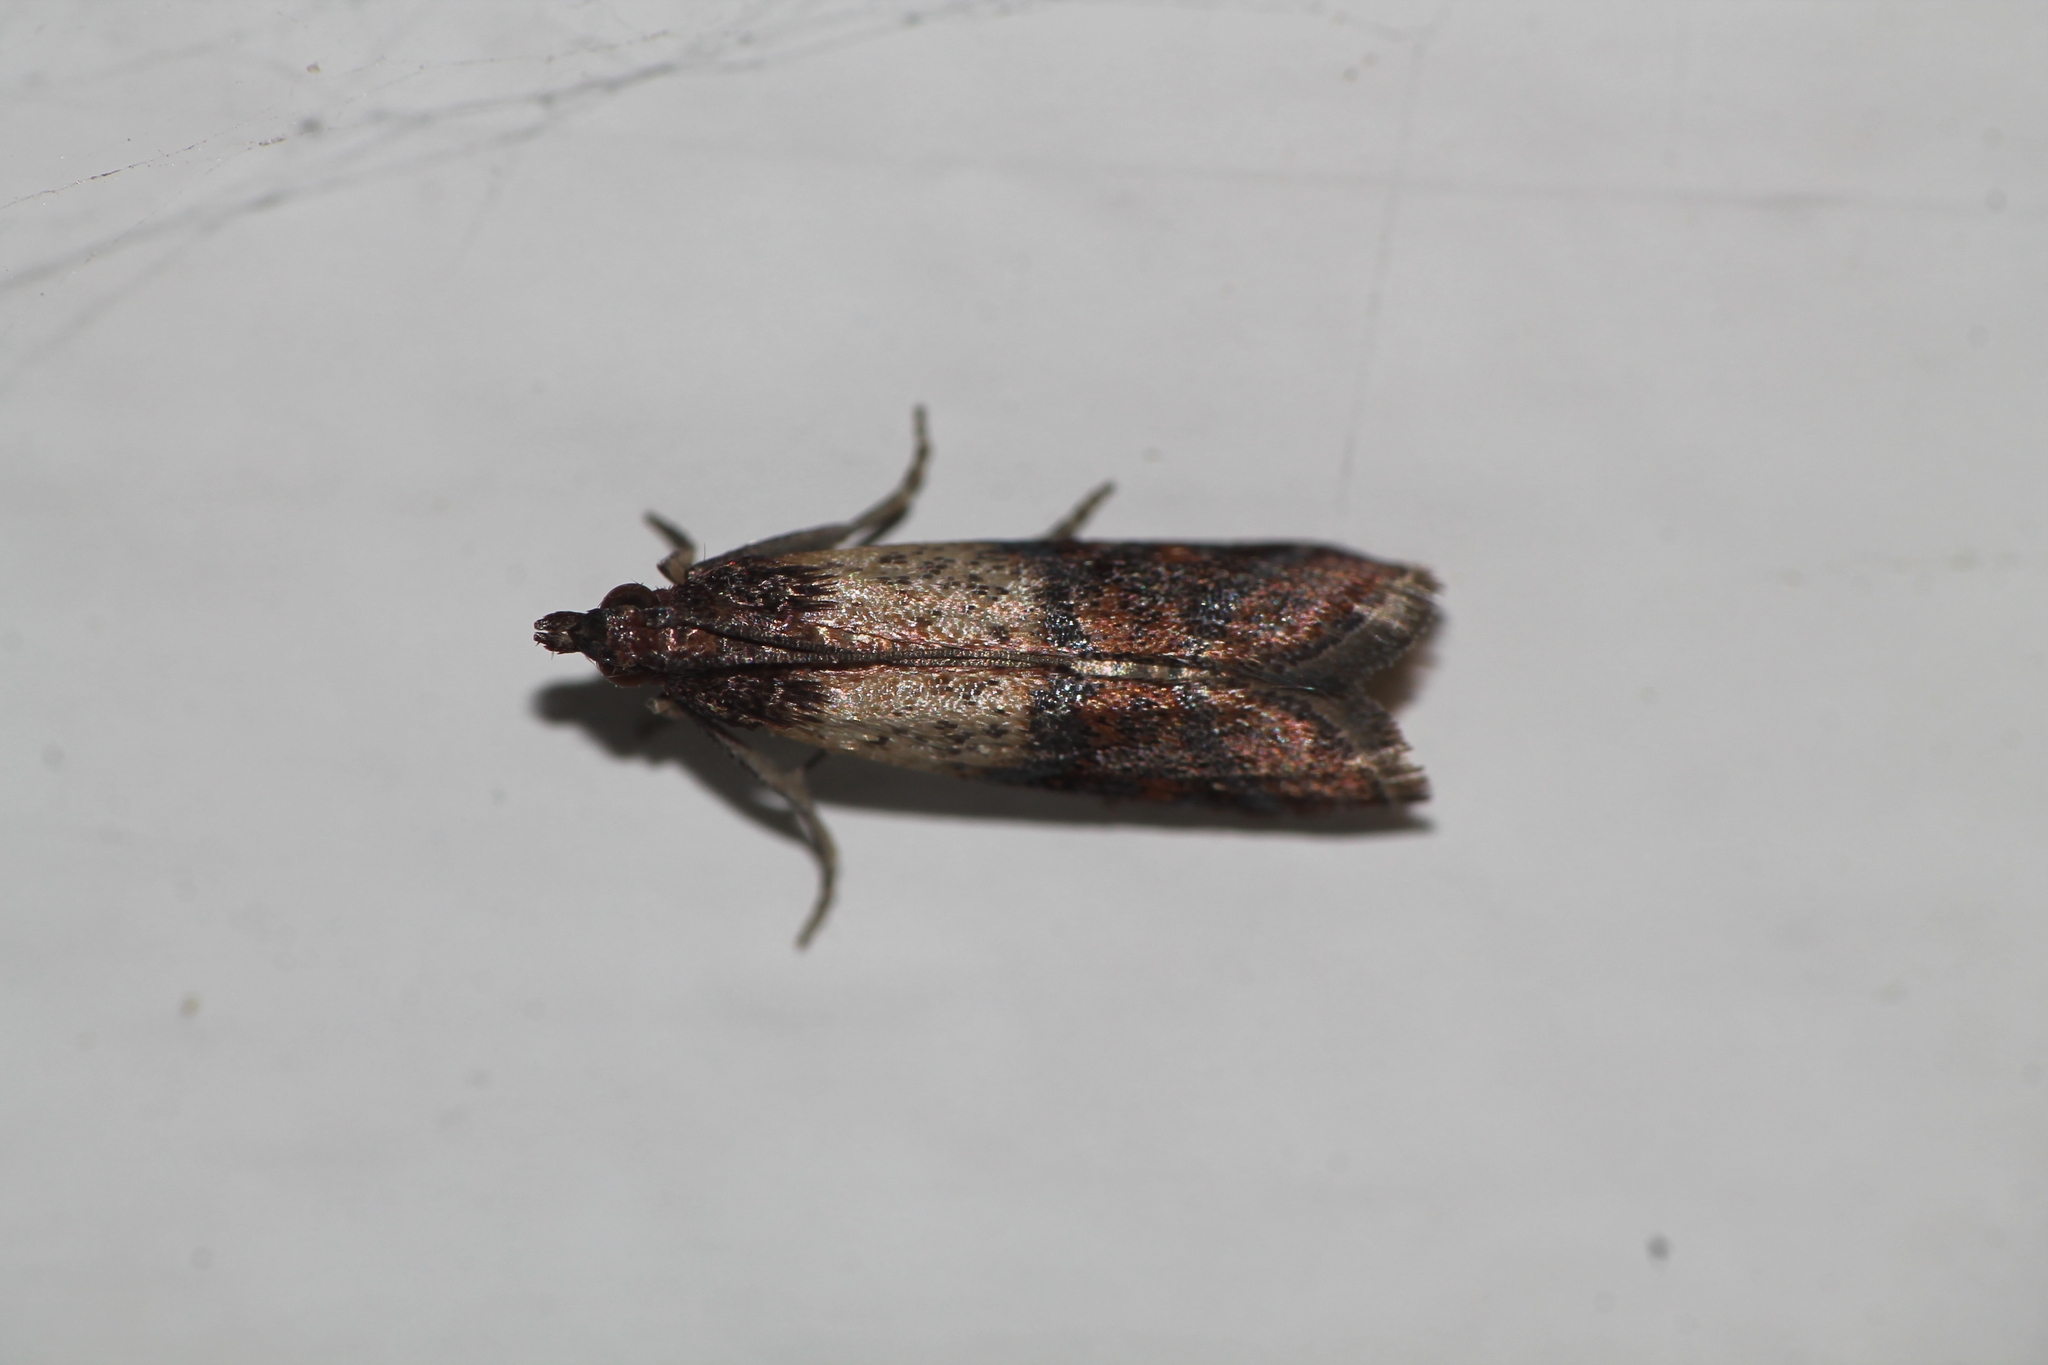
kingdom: Animalia
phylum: Arthropoda
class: Insecta
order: Lepidoptera
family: Pyralidae
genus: Plodia
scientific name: Plodia interpunctella
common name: Indian meal moth
